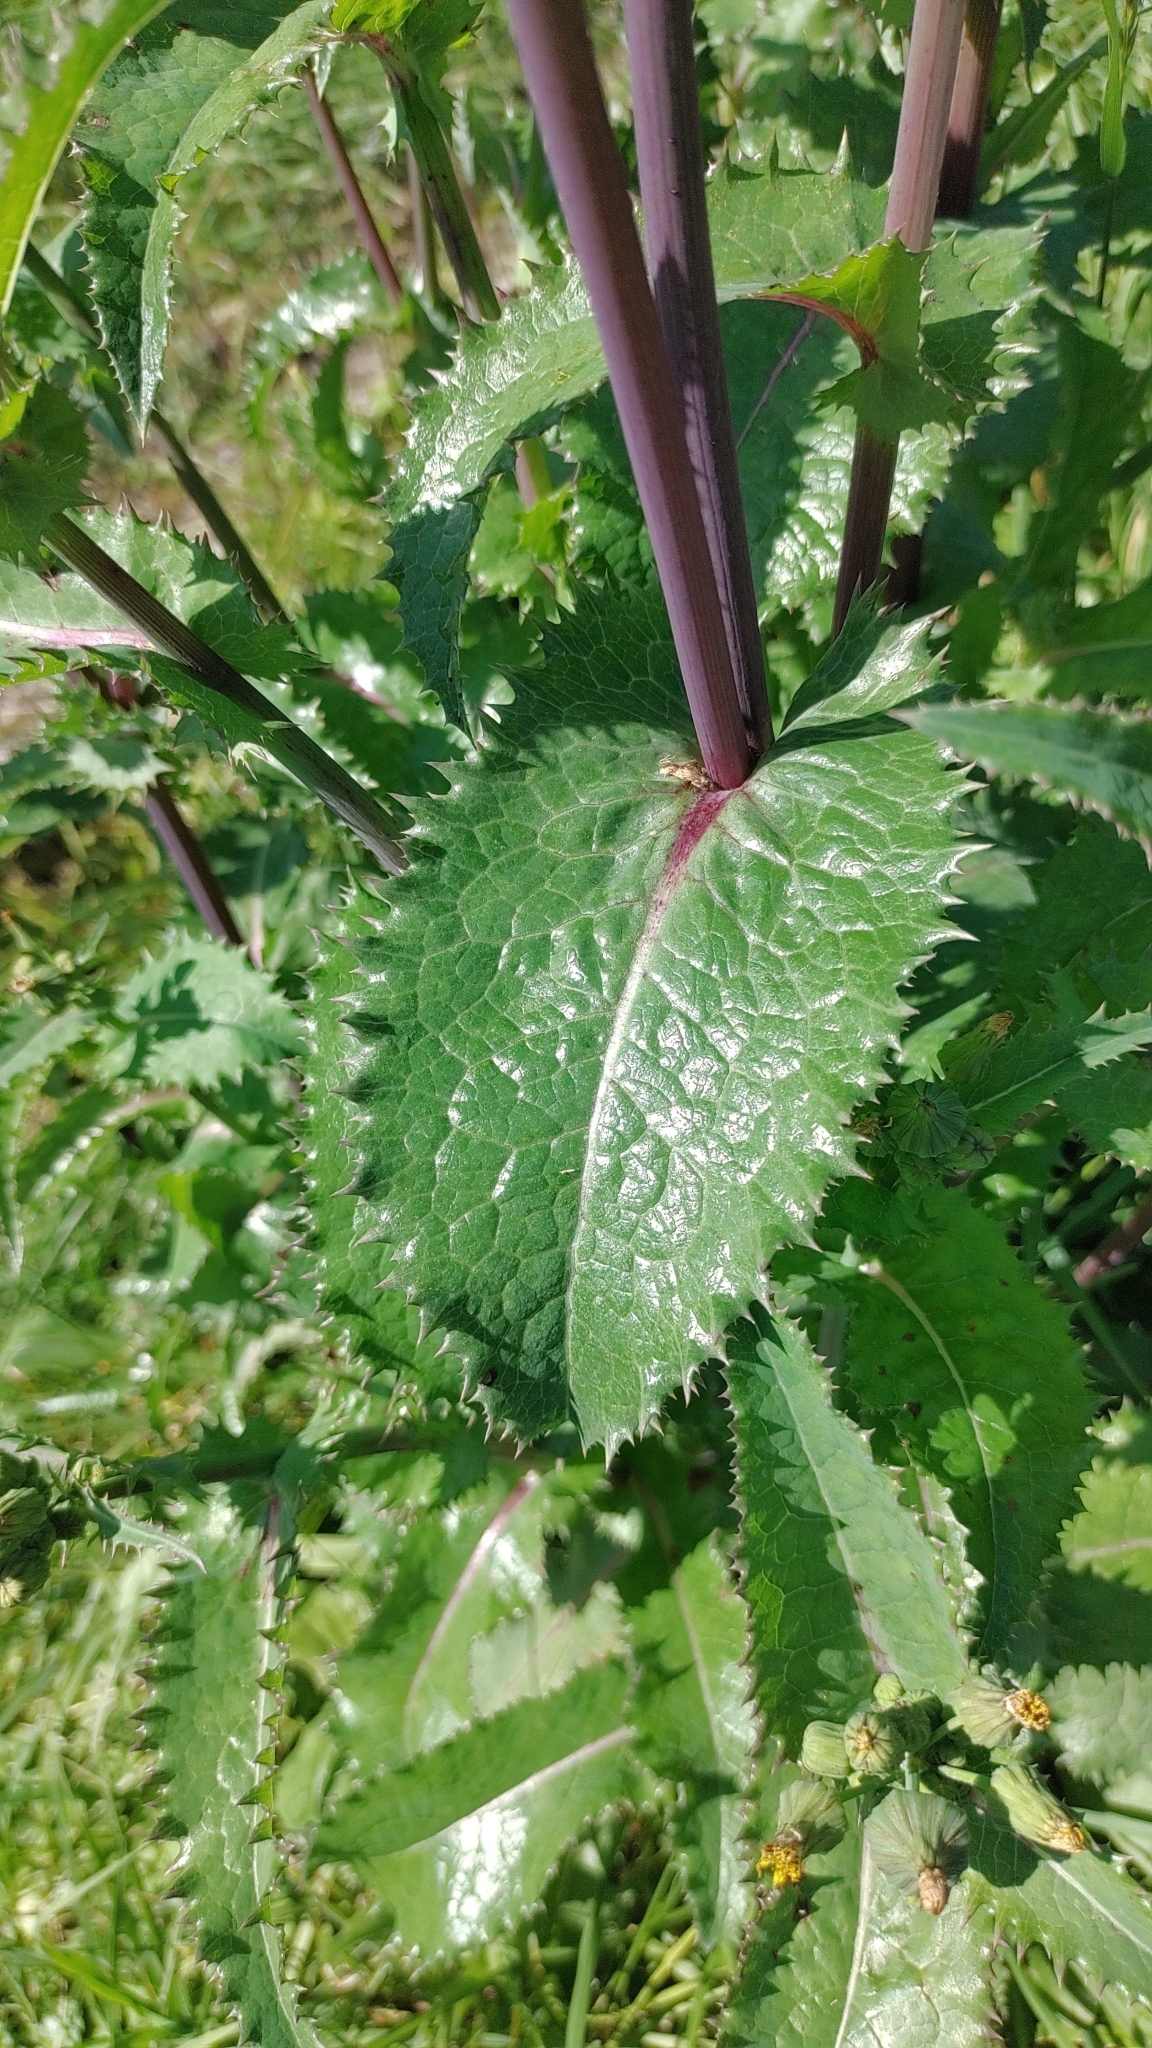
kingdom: Plantae
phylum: Tracheophyta
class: Magnoliopsida
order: Asterales
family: Asteraceae
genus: Sonchus
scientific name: Sonchus asper
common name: Prickly sow-thistle
